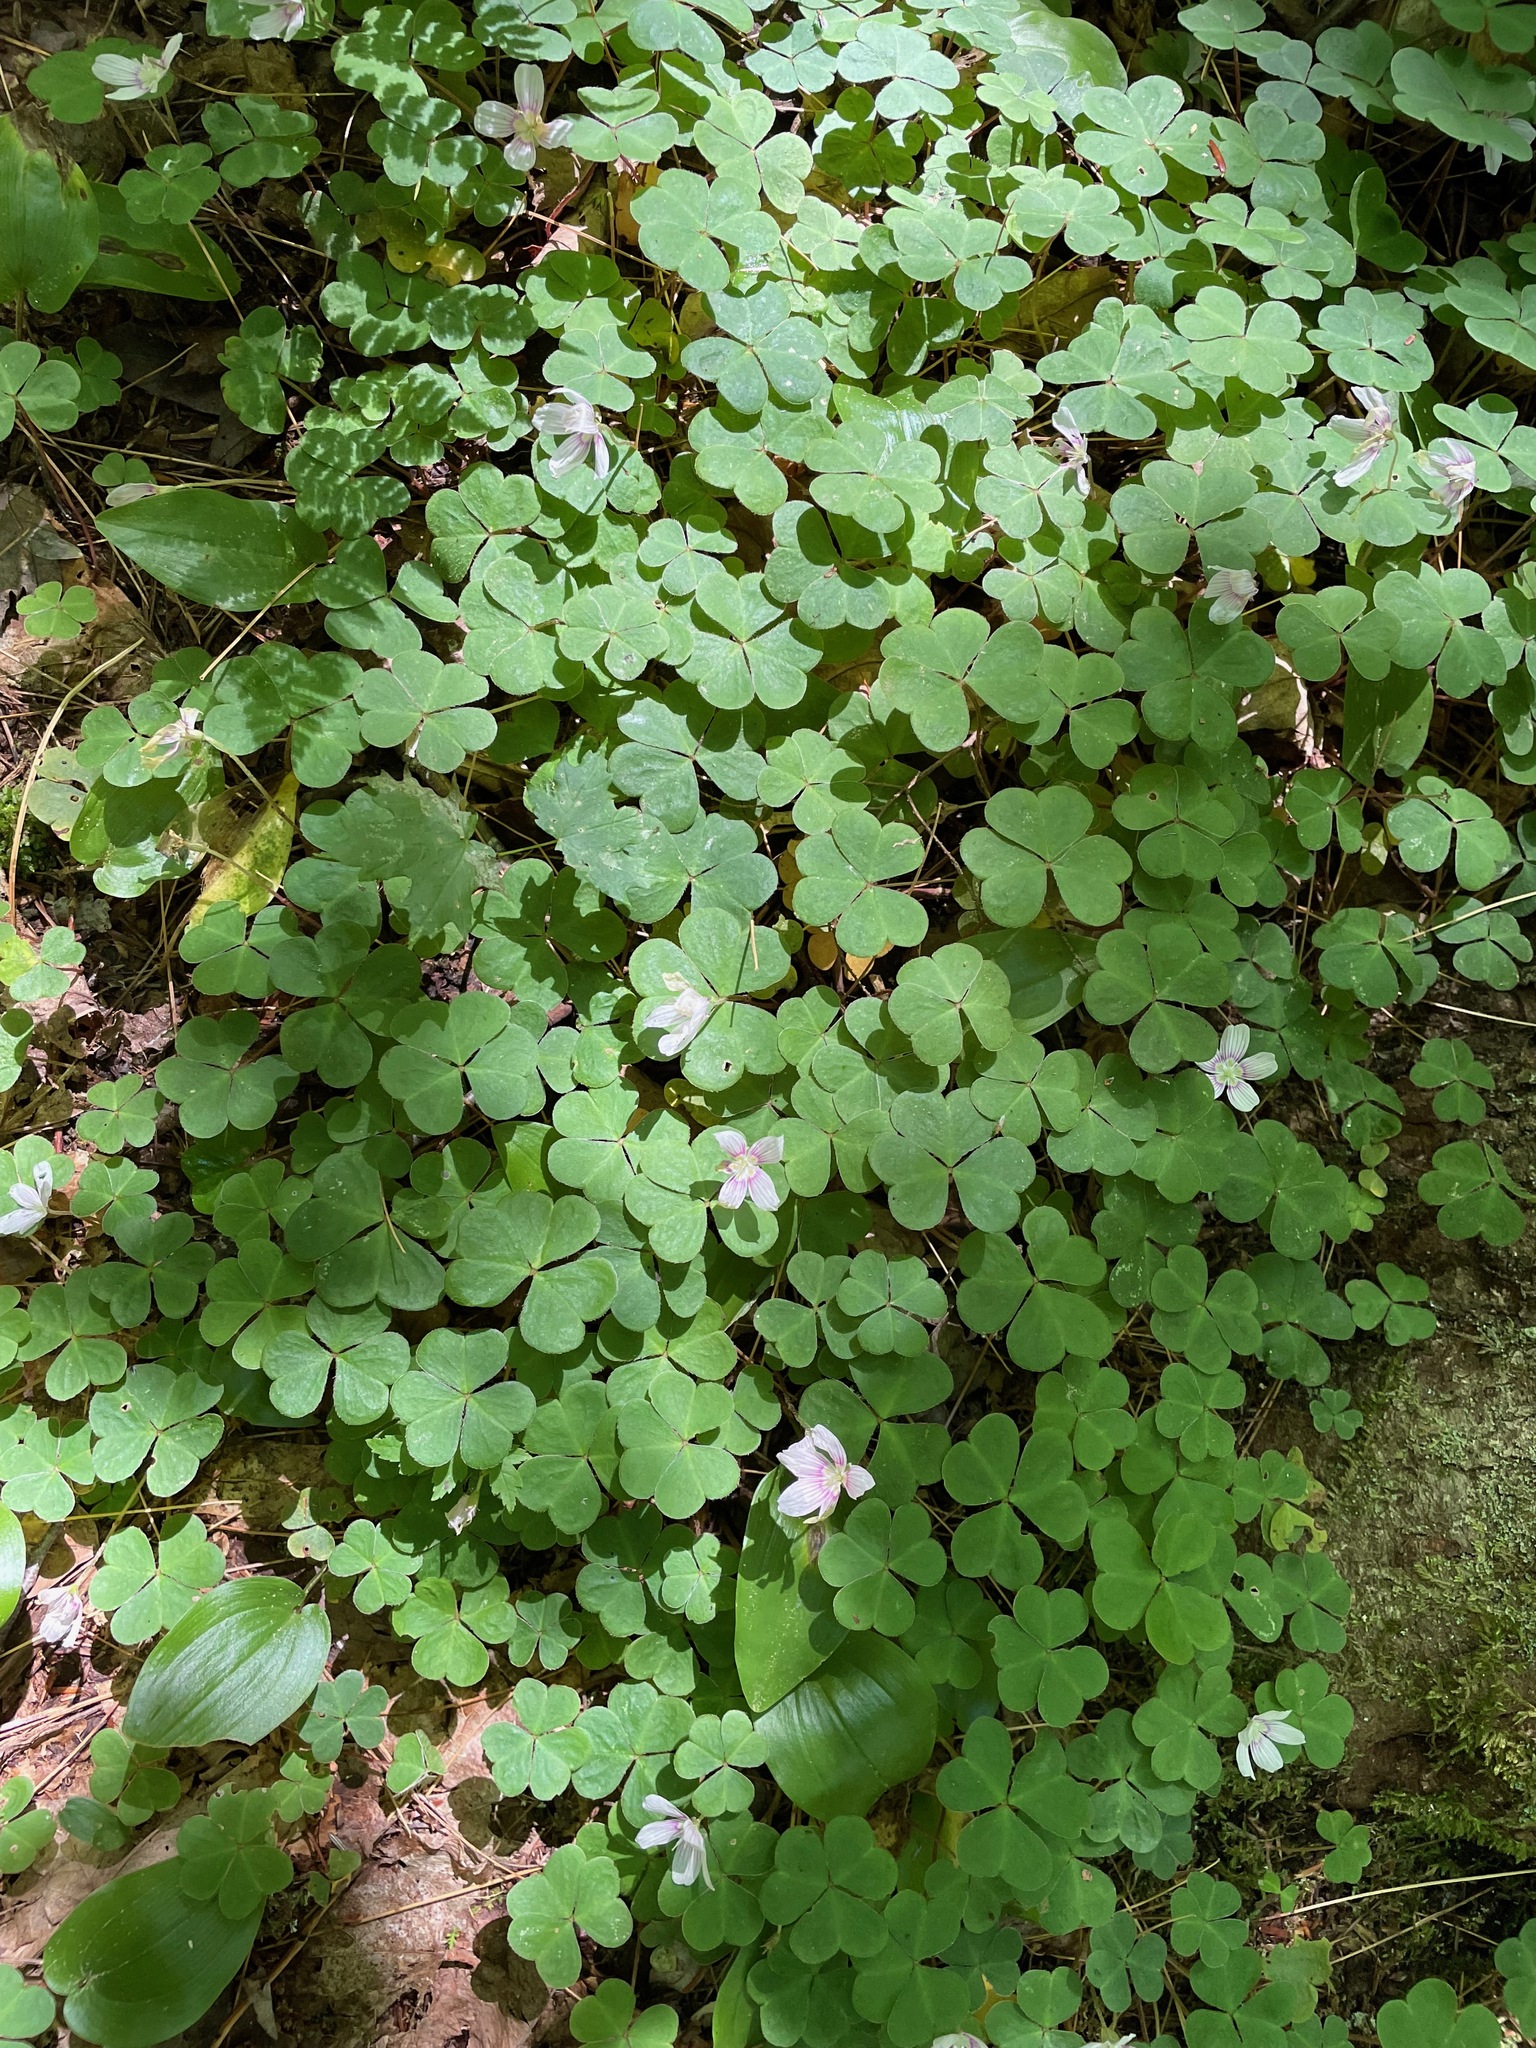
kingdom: Plantae
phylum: Tracheophyta
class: Magnoliopsida
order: Oxalidales
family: Oxalidaceae
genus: Oxalis
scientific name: Oxalis montana
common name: American wood-sorrel
